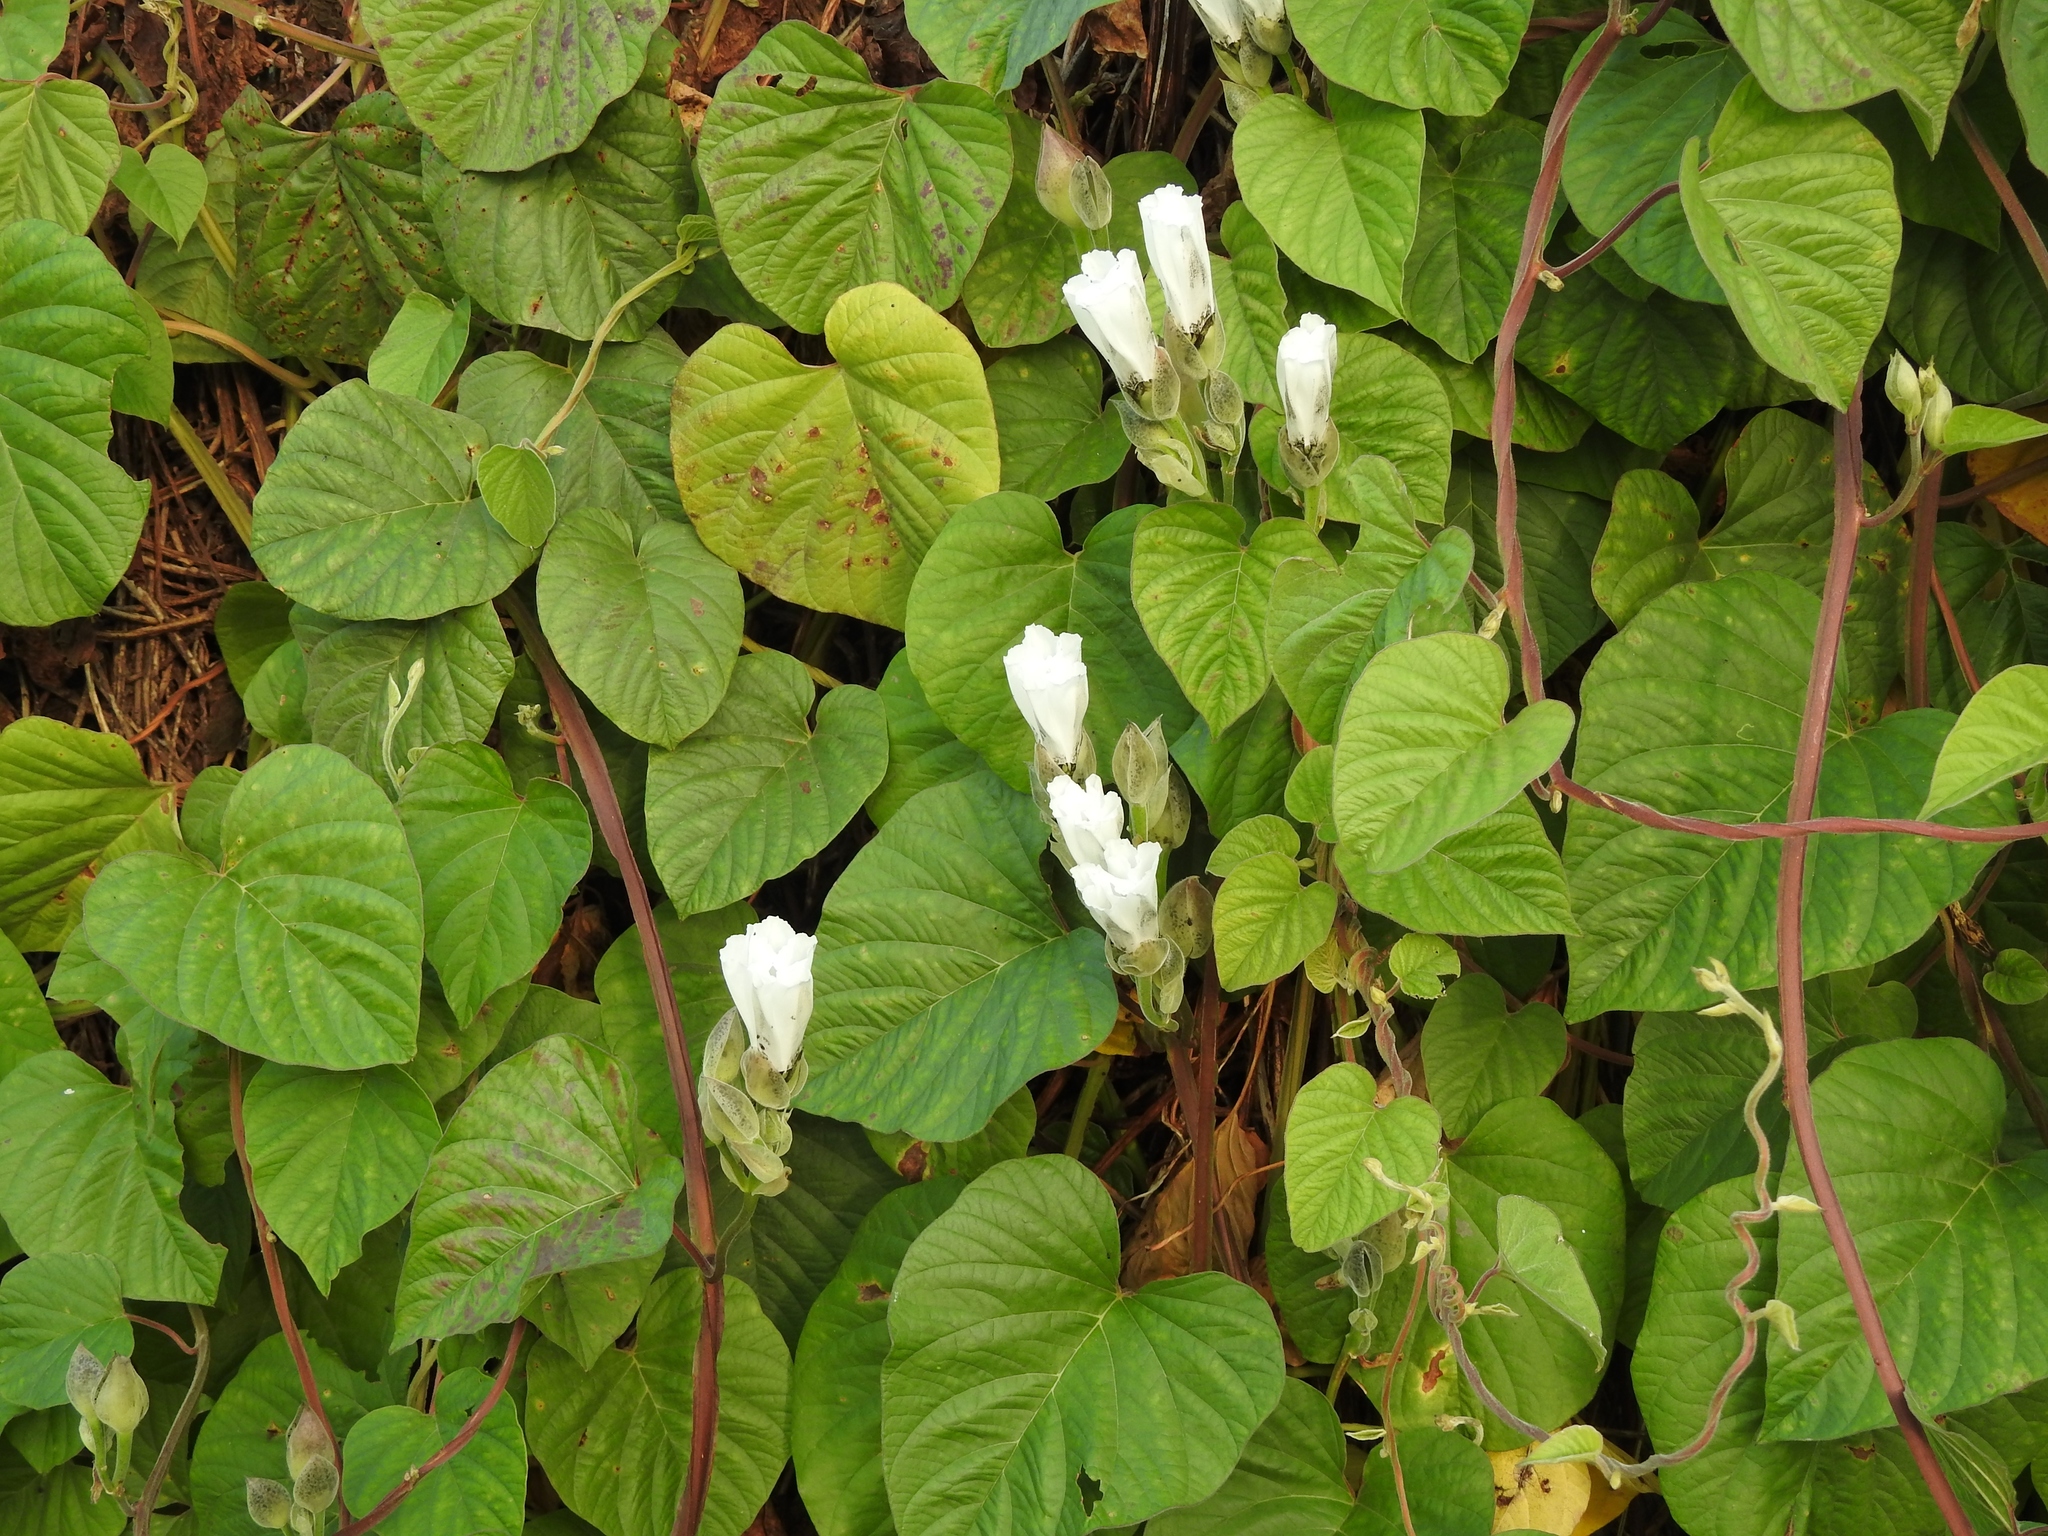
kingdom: Plantae
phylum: Tracheophyta
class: Magnoliopsida
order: Solanales
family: Convolvulaceae
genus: Operculina
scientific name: Operculina turpethum
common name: Transparent wood-rose
